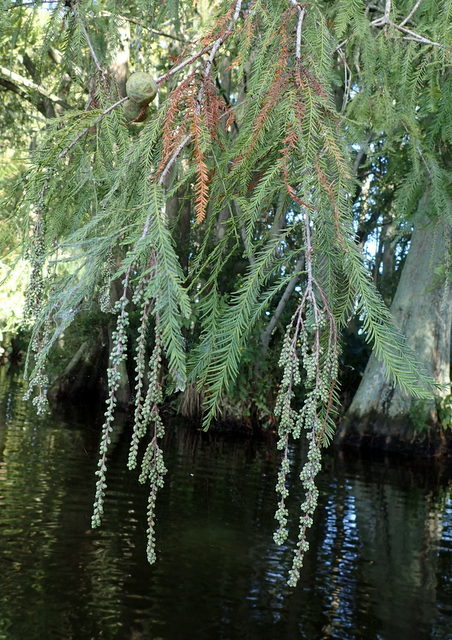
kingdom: Plantae
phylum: Tracheophyta
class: Pinopsida
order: Pinales
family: Cupressaceae
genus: Taxodium
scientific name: Taxodium distichum
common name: Bald cypress
